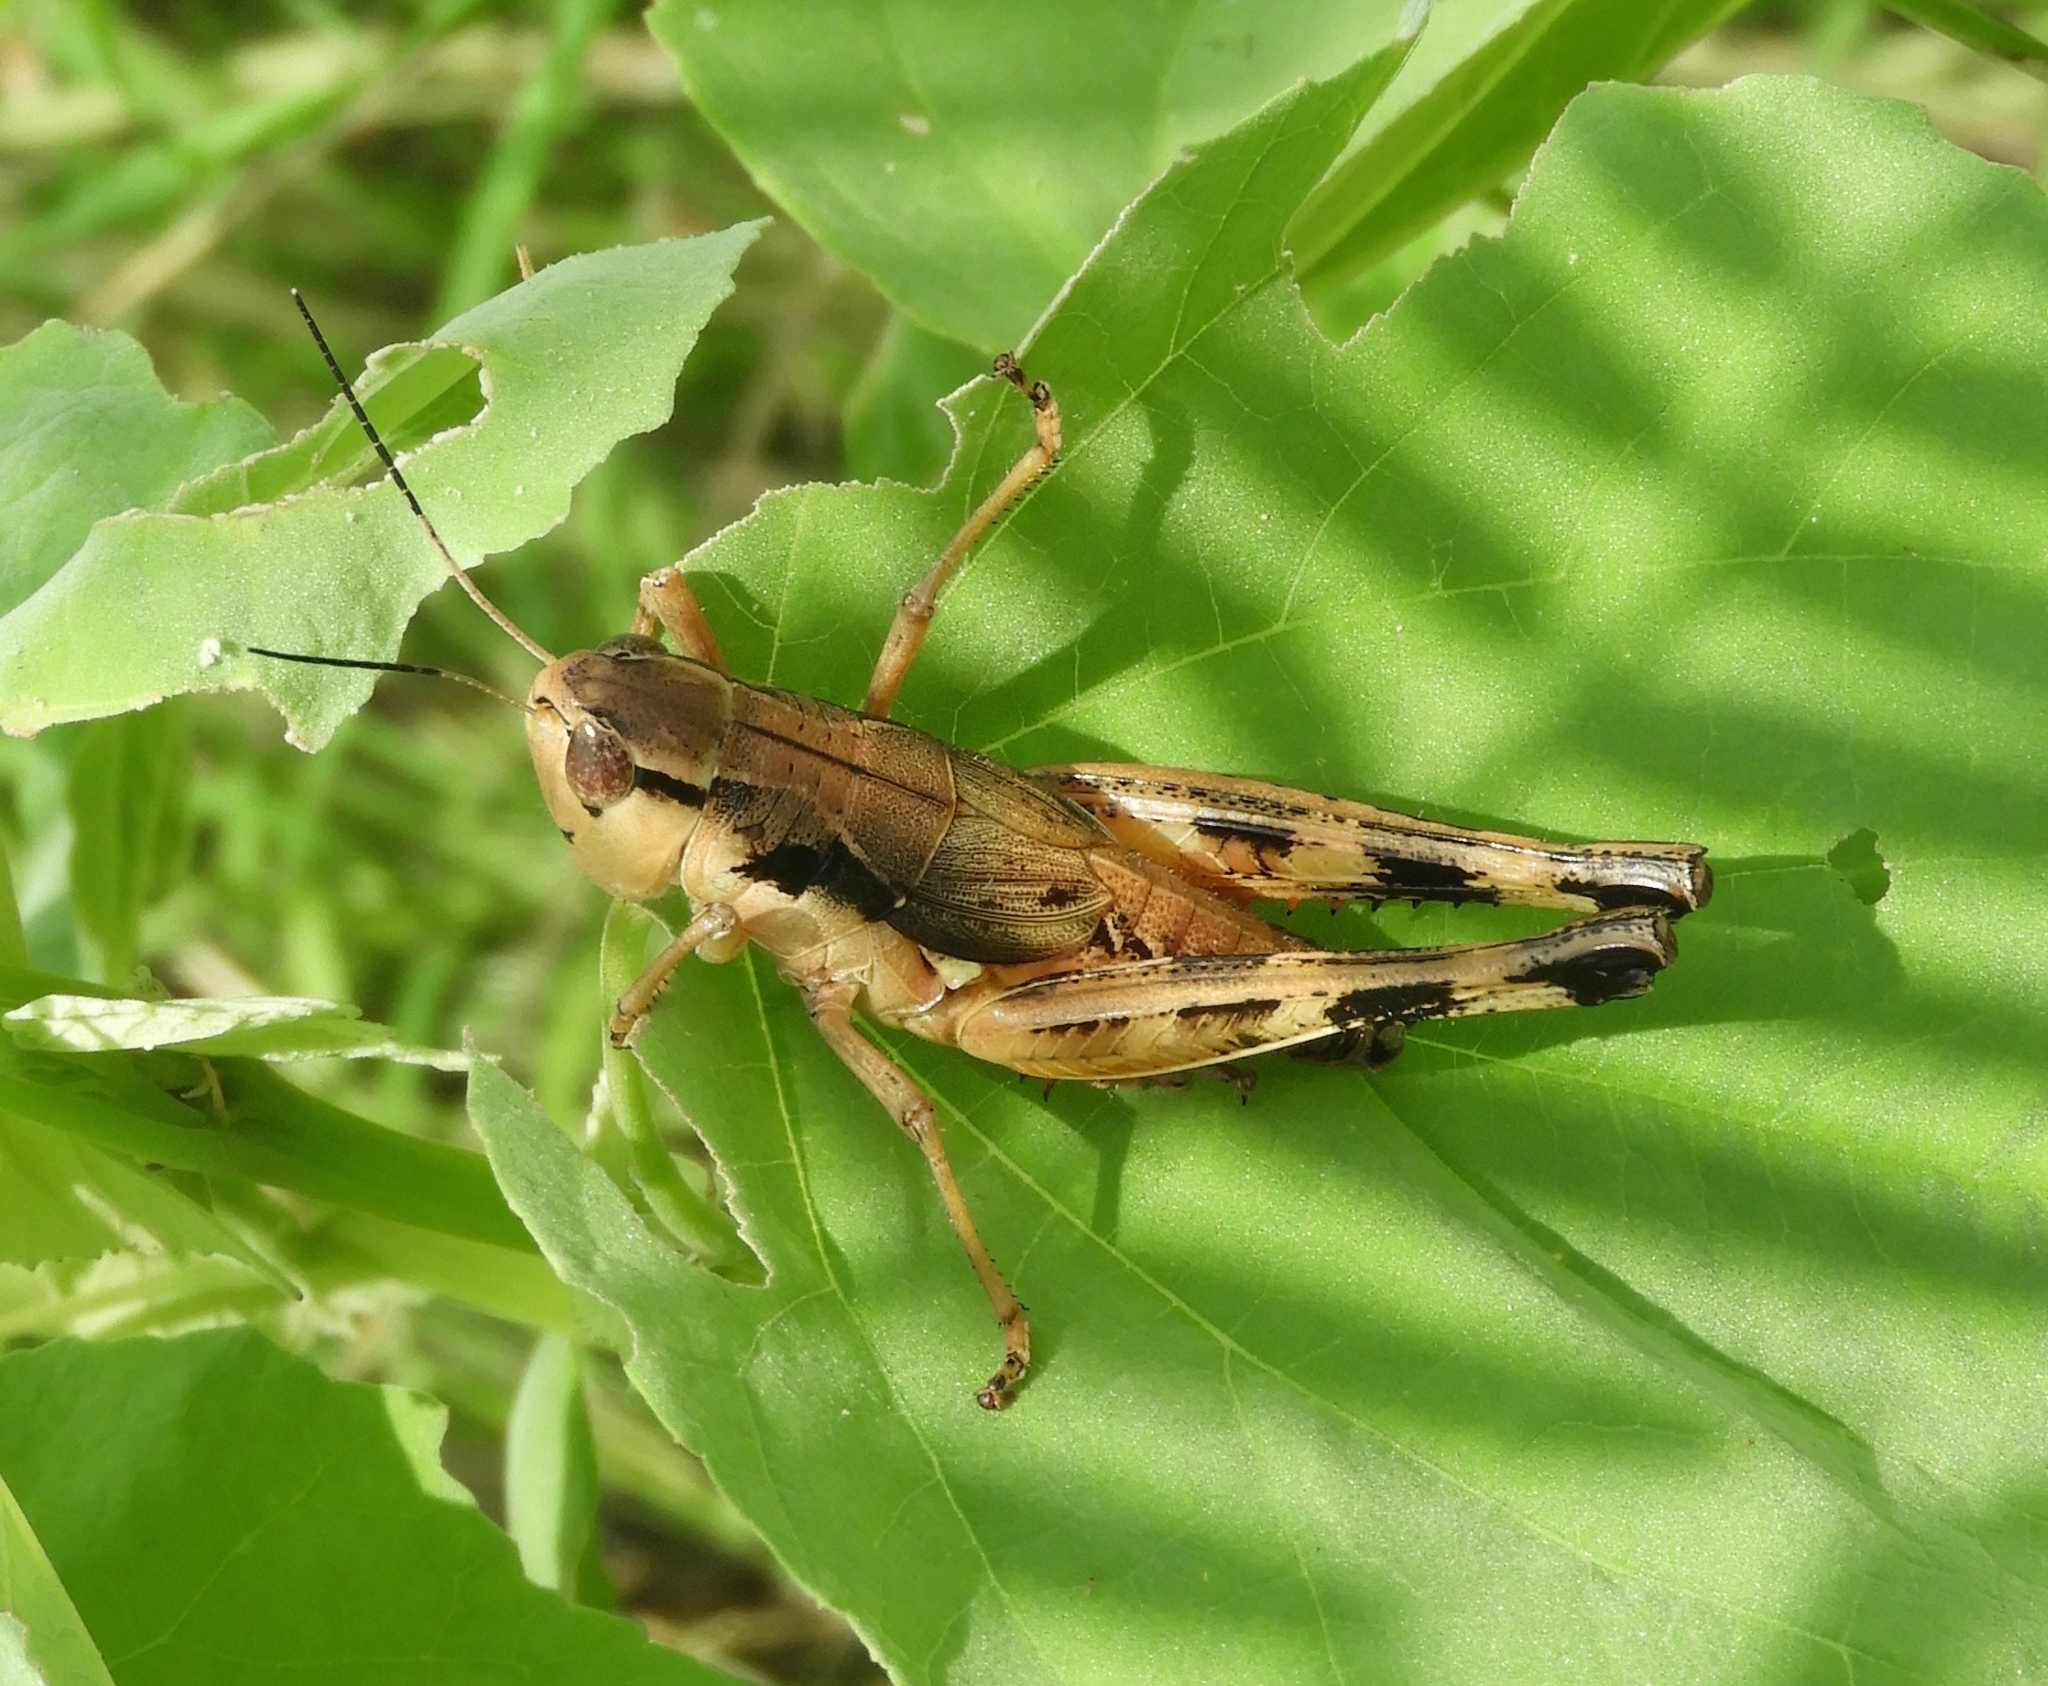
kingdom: Animalia
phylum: Arthropoda
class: Insecta
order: Orthoptera
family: Acrididae
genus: Boopedon
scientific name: Boopedon flaviventris
